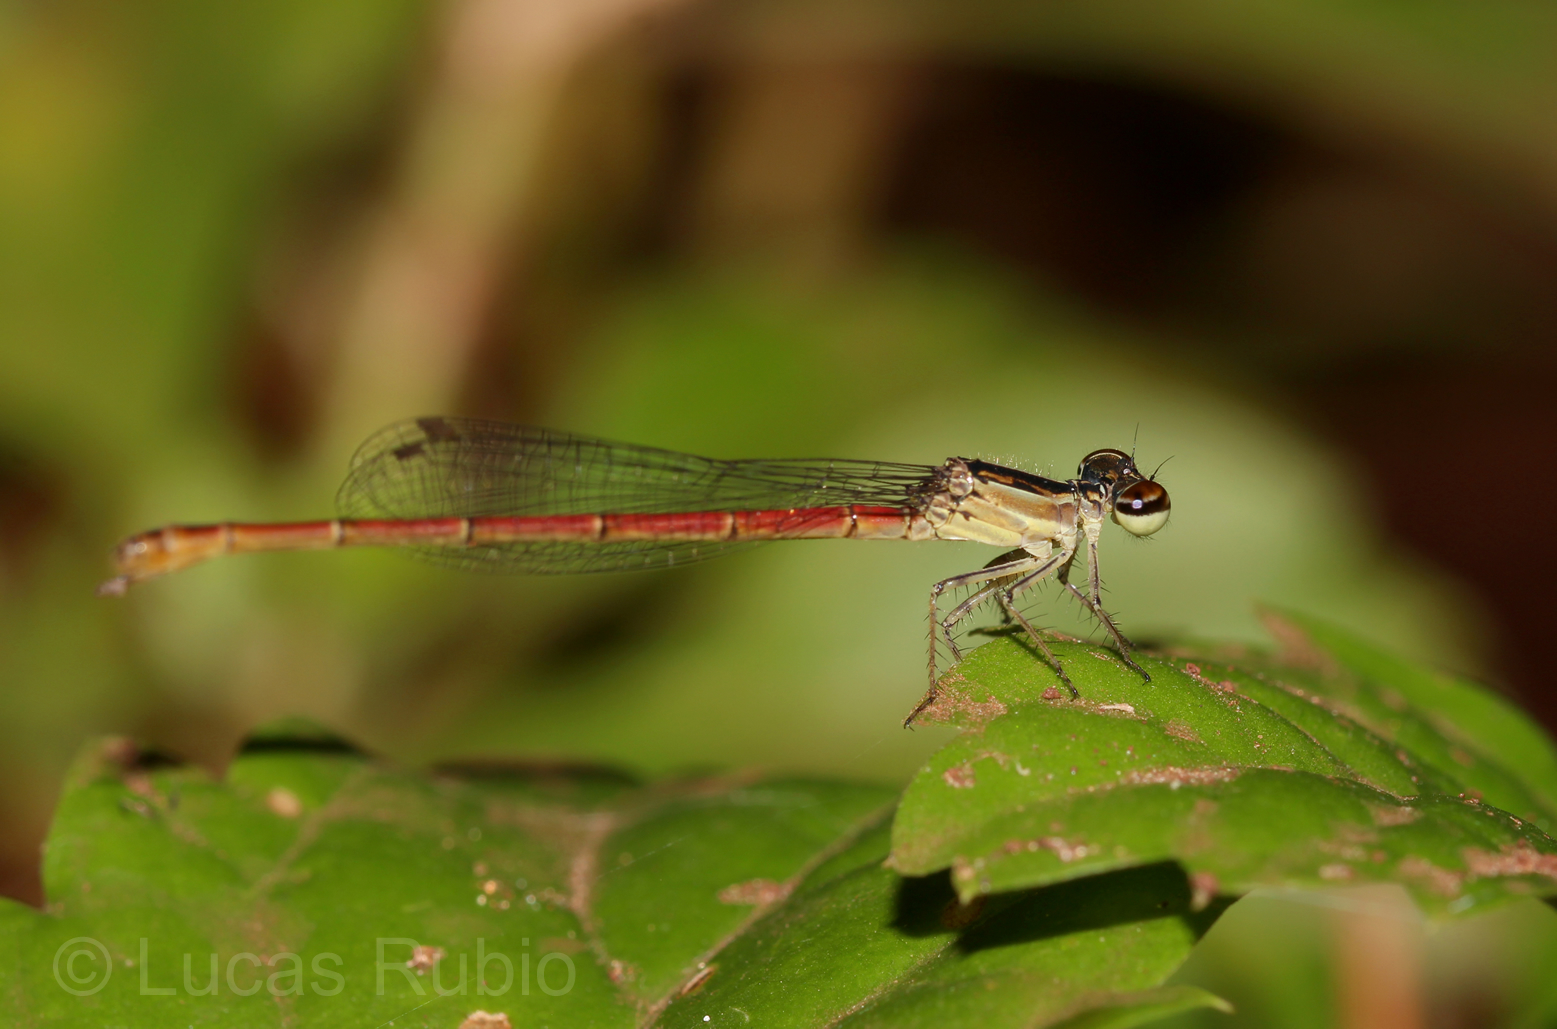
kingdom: Animalia
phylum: Arthropoda
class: Insecta
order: Odonata
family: Coenagrionidae
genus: Telebasis
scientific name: Telebasis willinki
